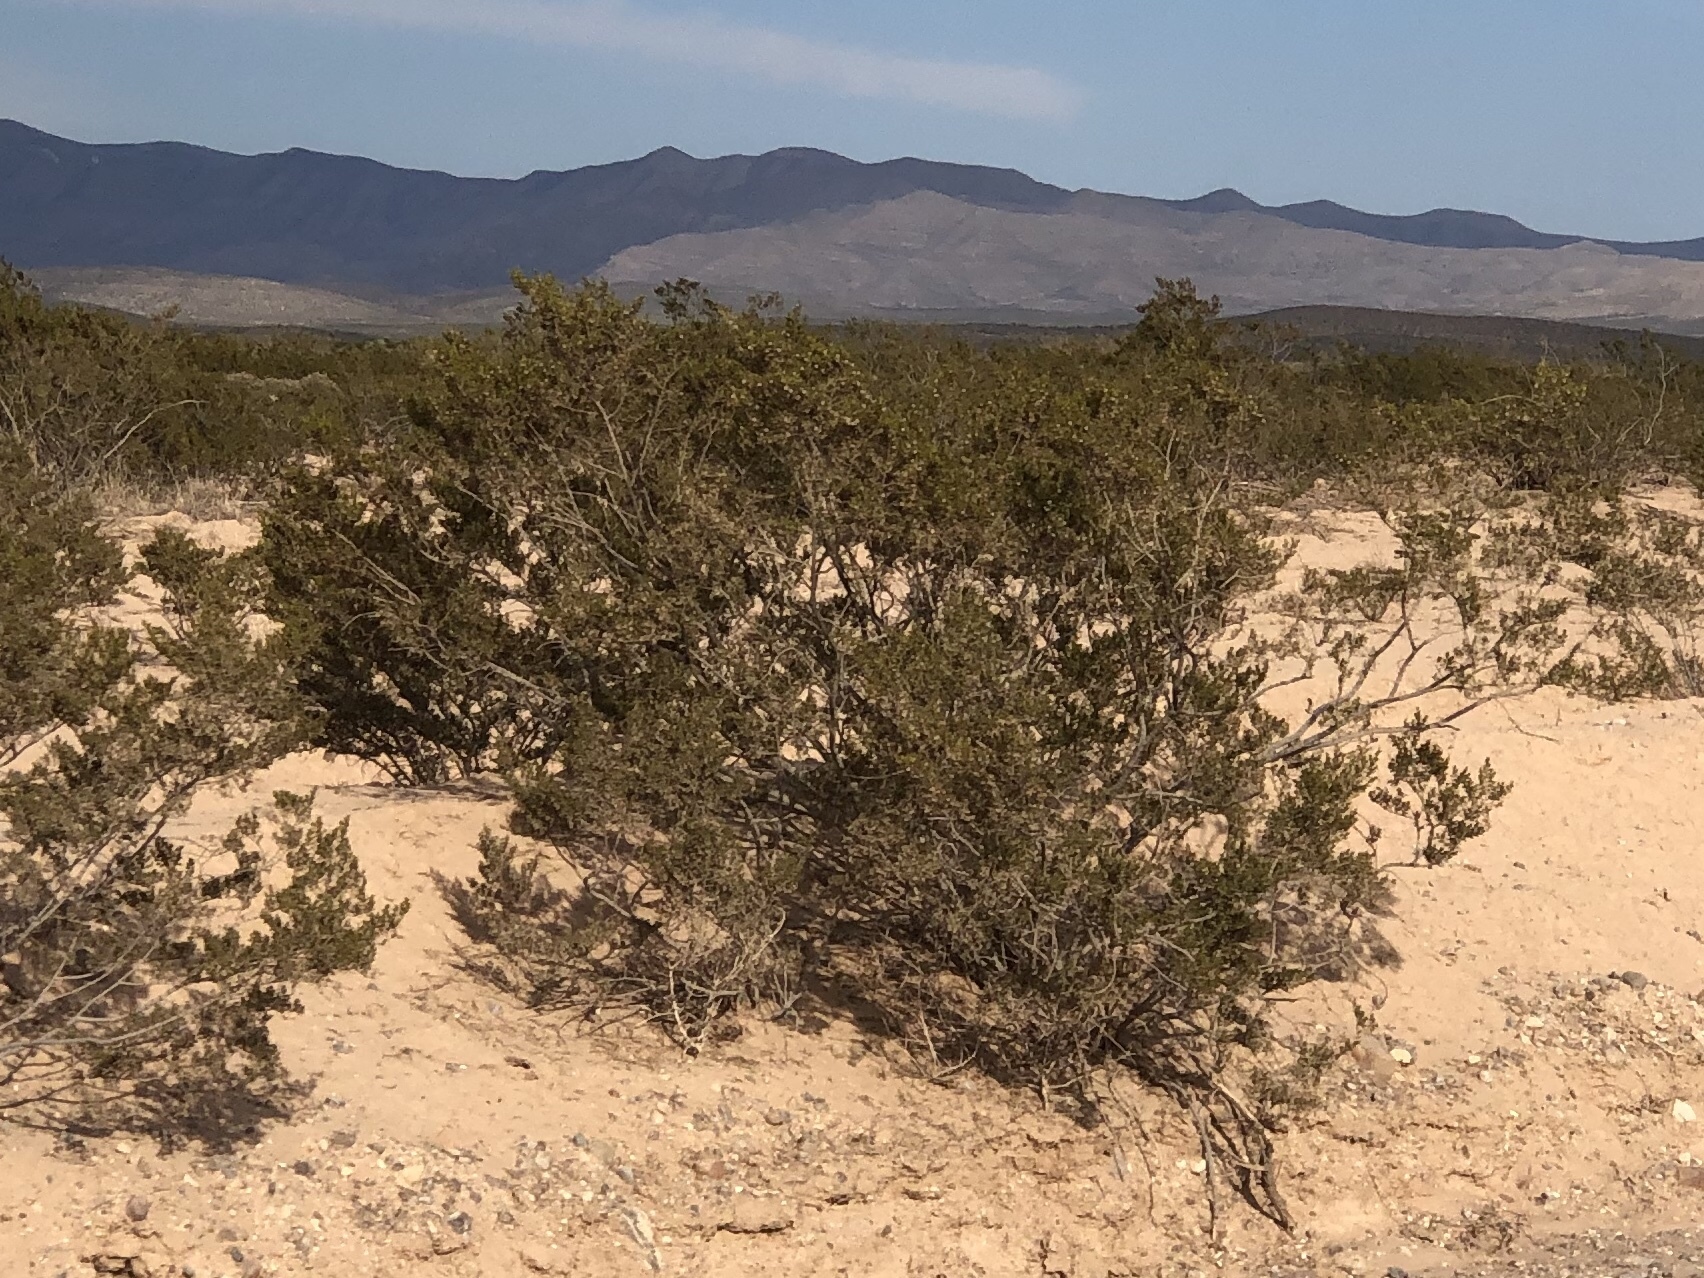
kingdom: Plantae
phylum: Tracheophyta
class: Magnoliopsida
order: Zygophyllales
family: Zygophyllaceae
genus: Larrea
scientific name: Larrea tridentata
